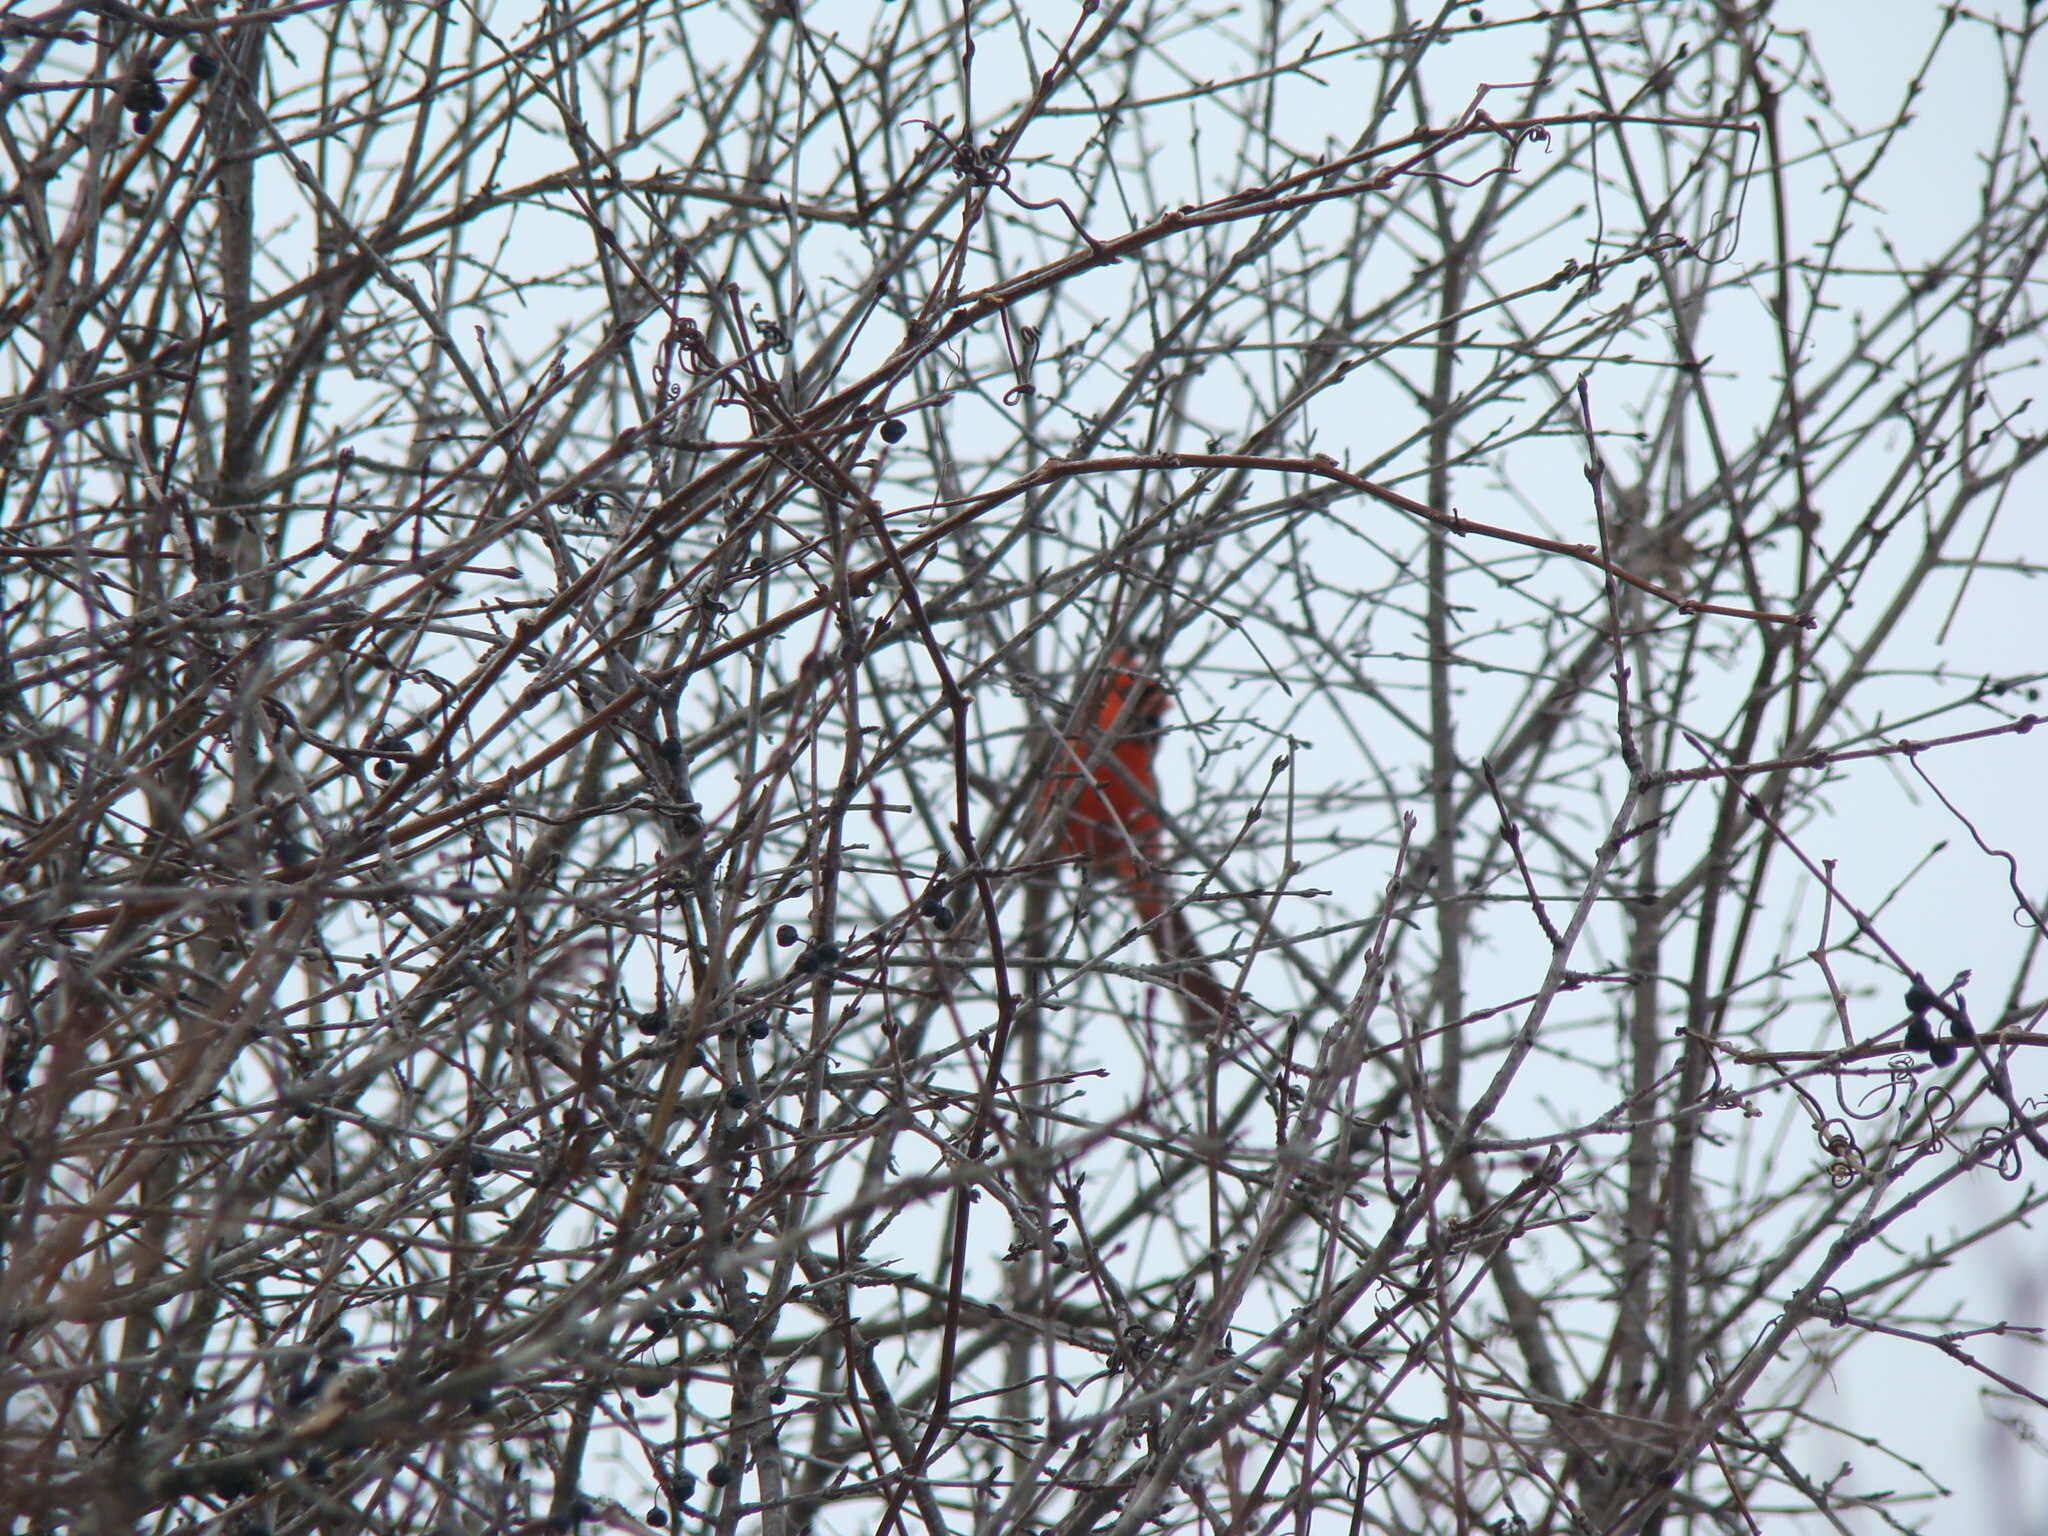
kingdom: Animalia
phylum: Chordata
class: Aves
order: Passeriformes
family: Cardinalidae
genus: Cardinalis
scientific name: Cardinalis cardinalis
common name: Northern cardinal
